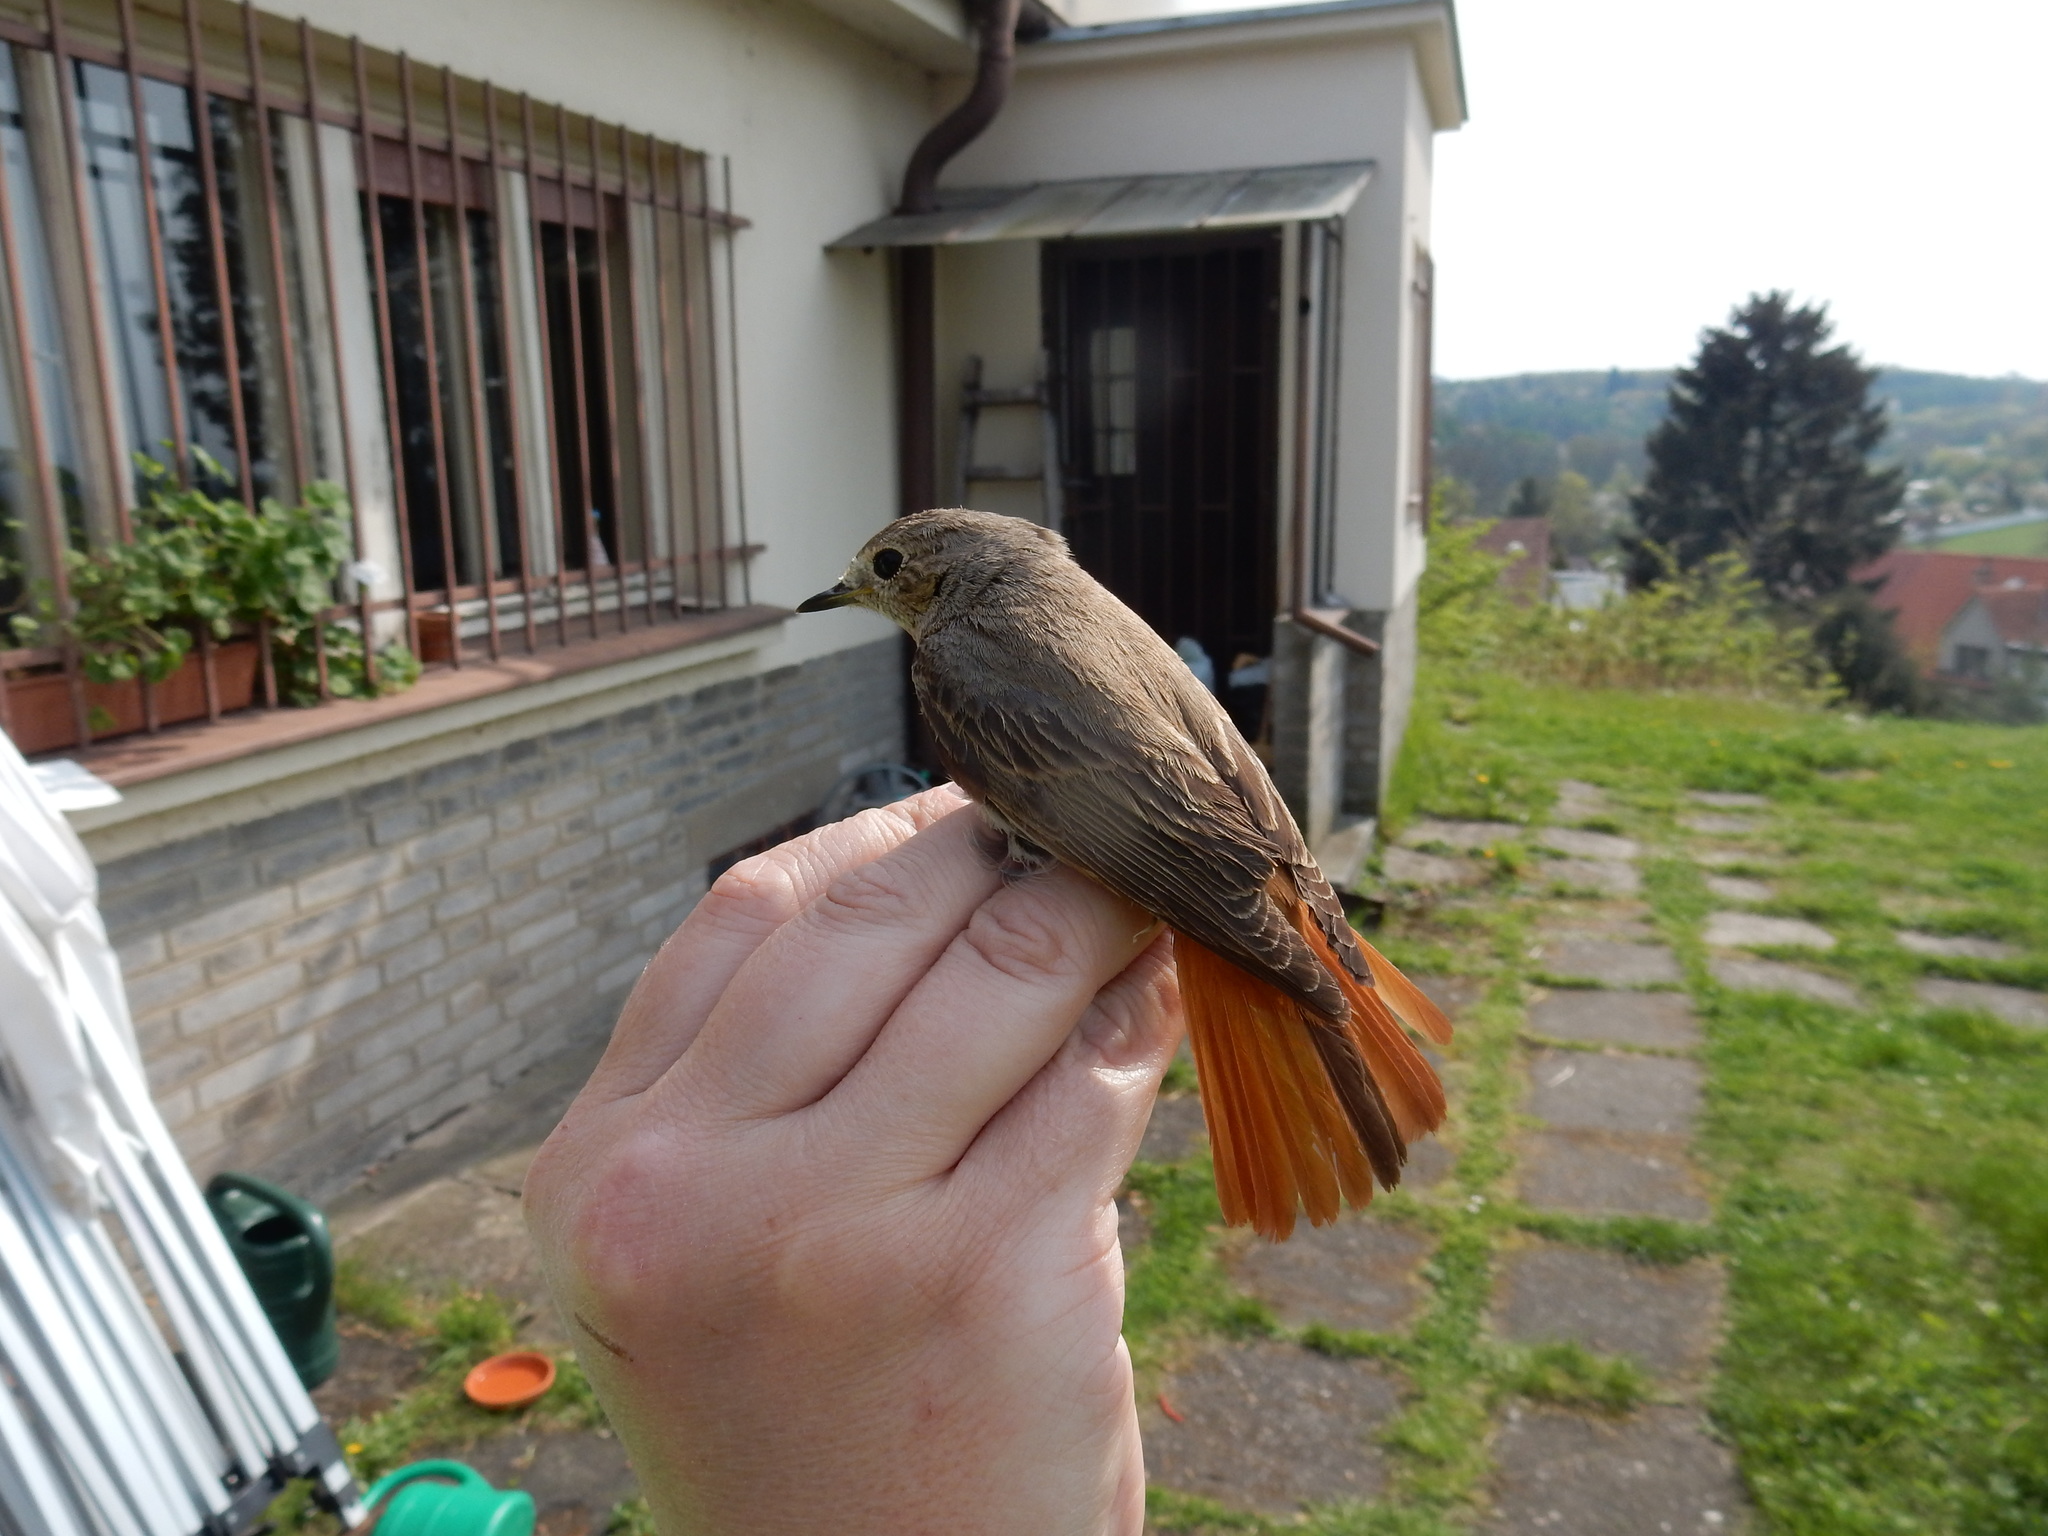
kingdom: Animalia
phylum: Chordata
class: Aves
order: Passeriformes
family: Muscicapidae
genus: Phoenicurus
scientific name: Phoenicurus phoenicurus
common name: Common redstart
